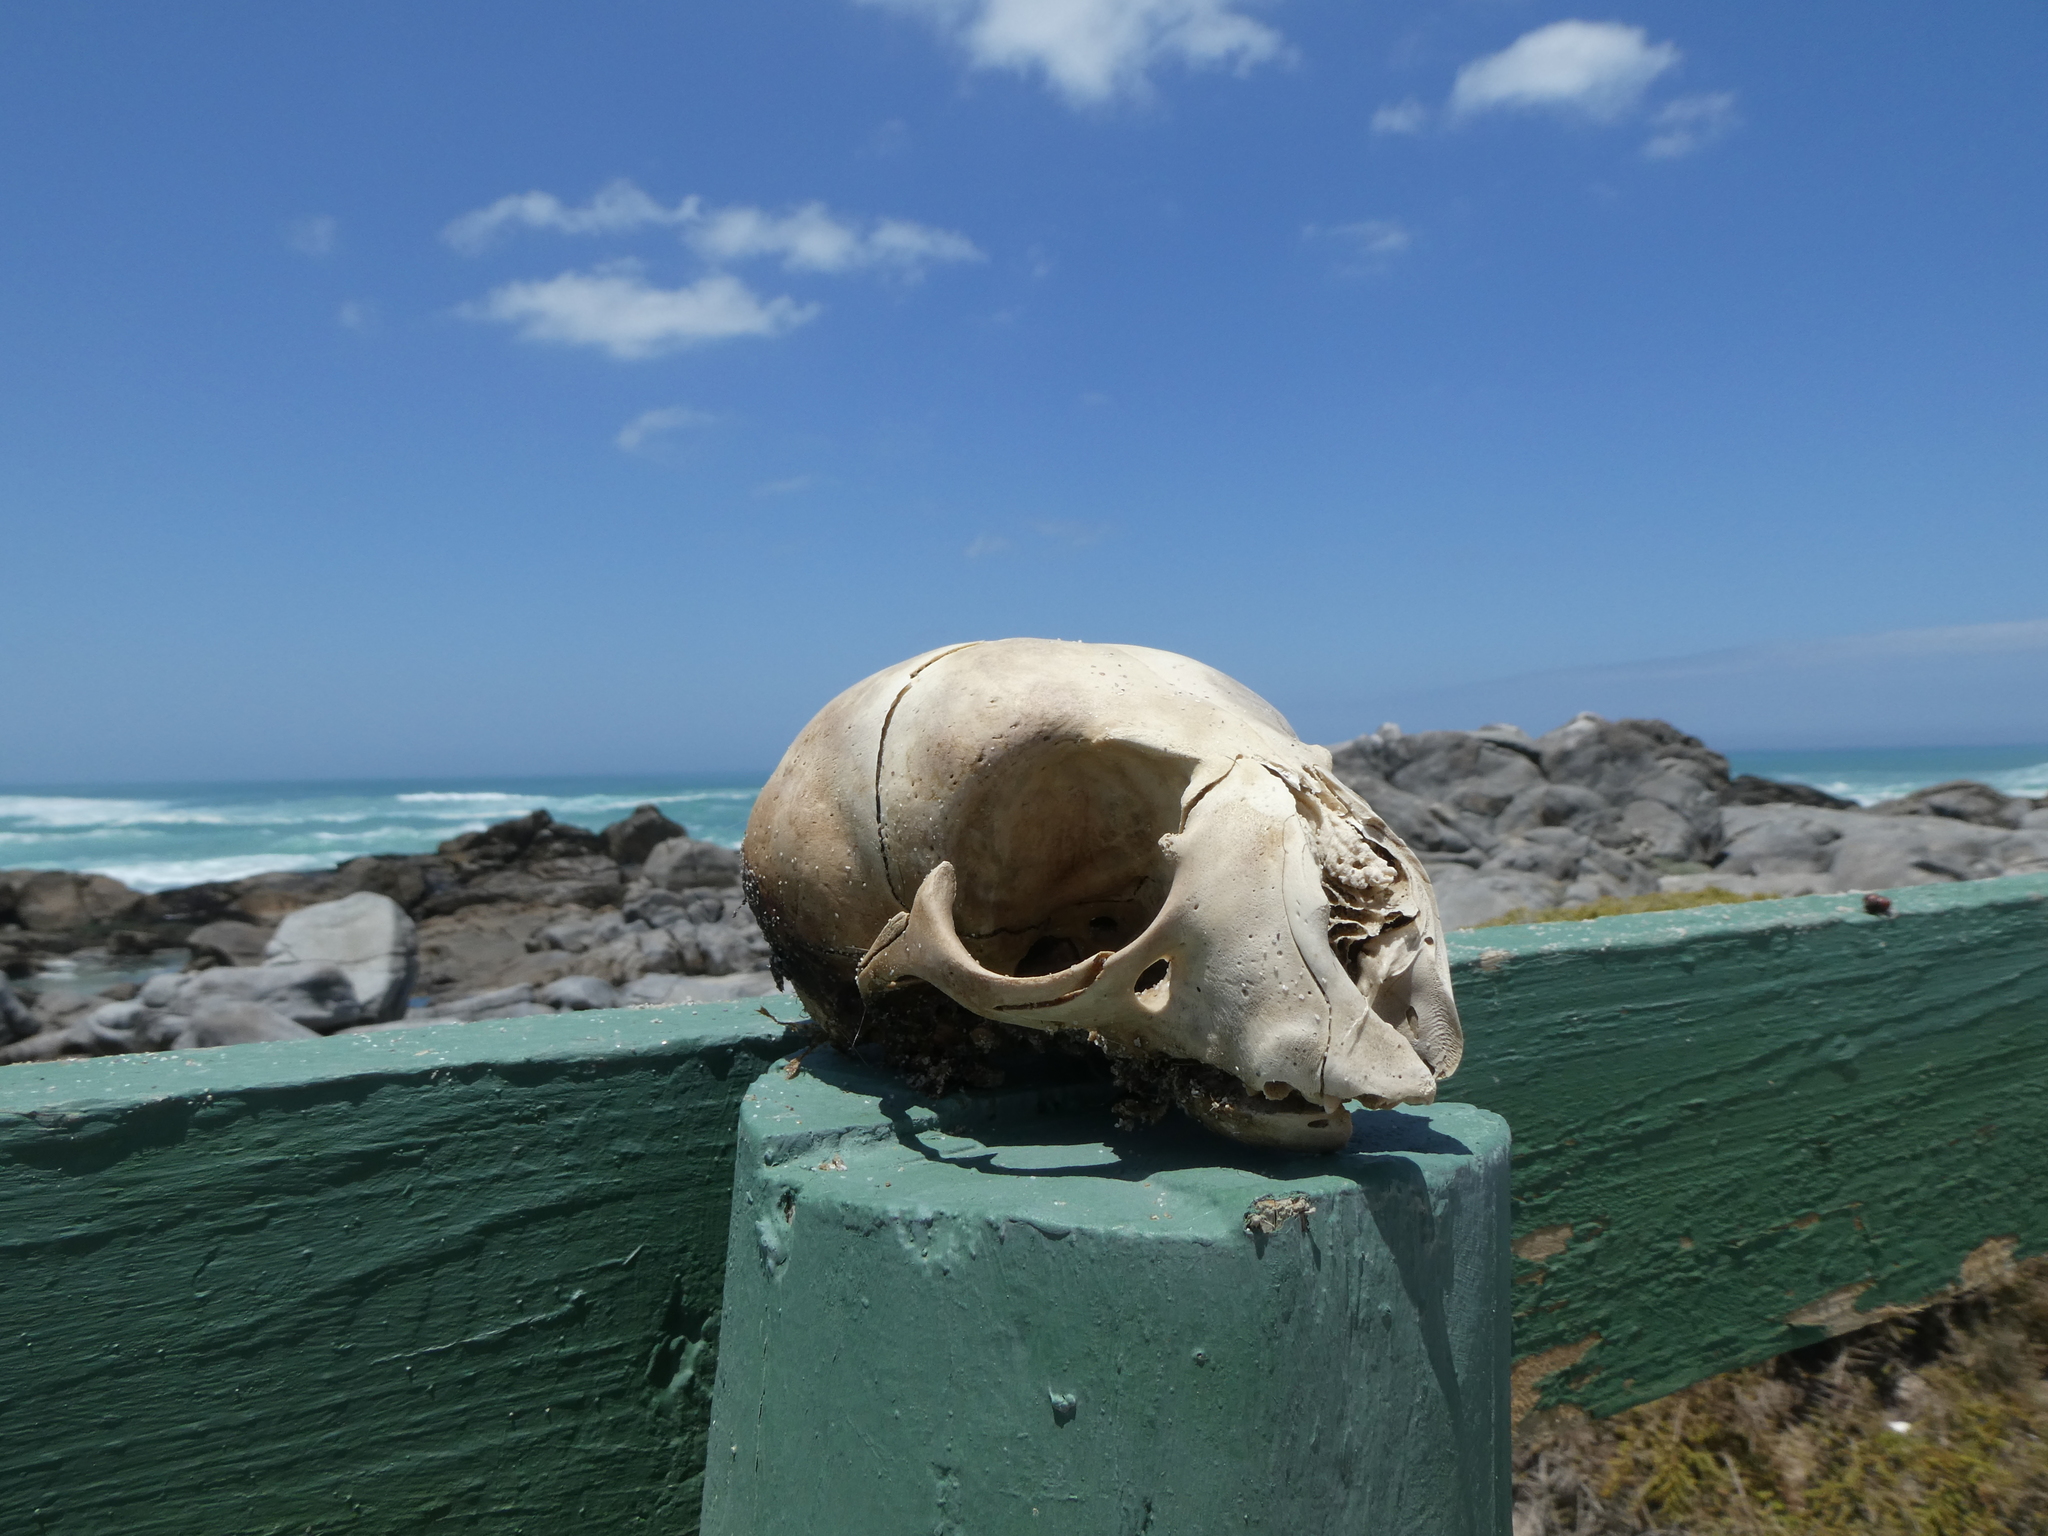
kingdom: Animalia
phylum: Chordata
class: Mammalia
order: Carnivora
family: Otariidae
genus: Arctocephalus
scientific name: Arctocephalus pusillus
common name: Brown fur seal
